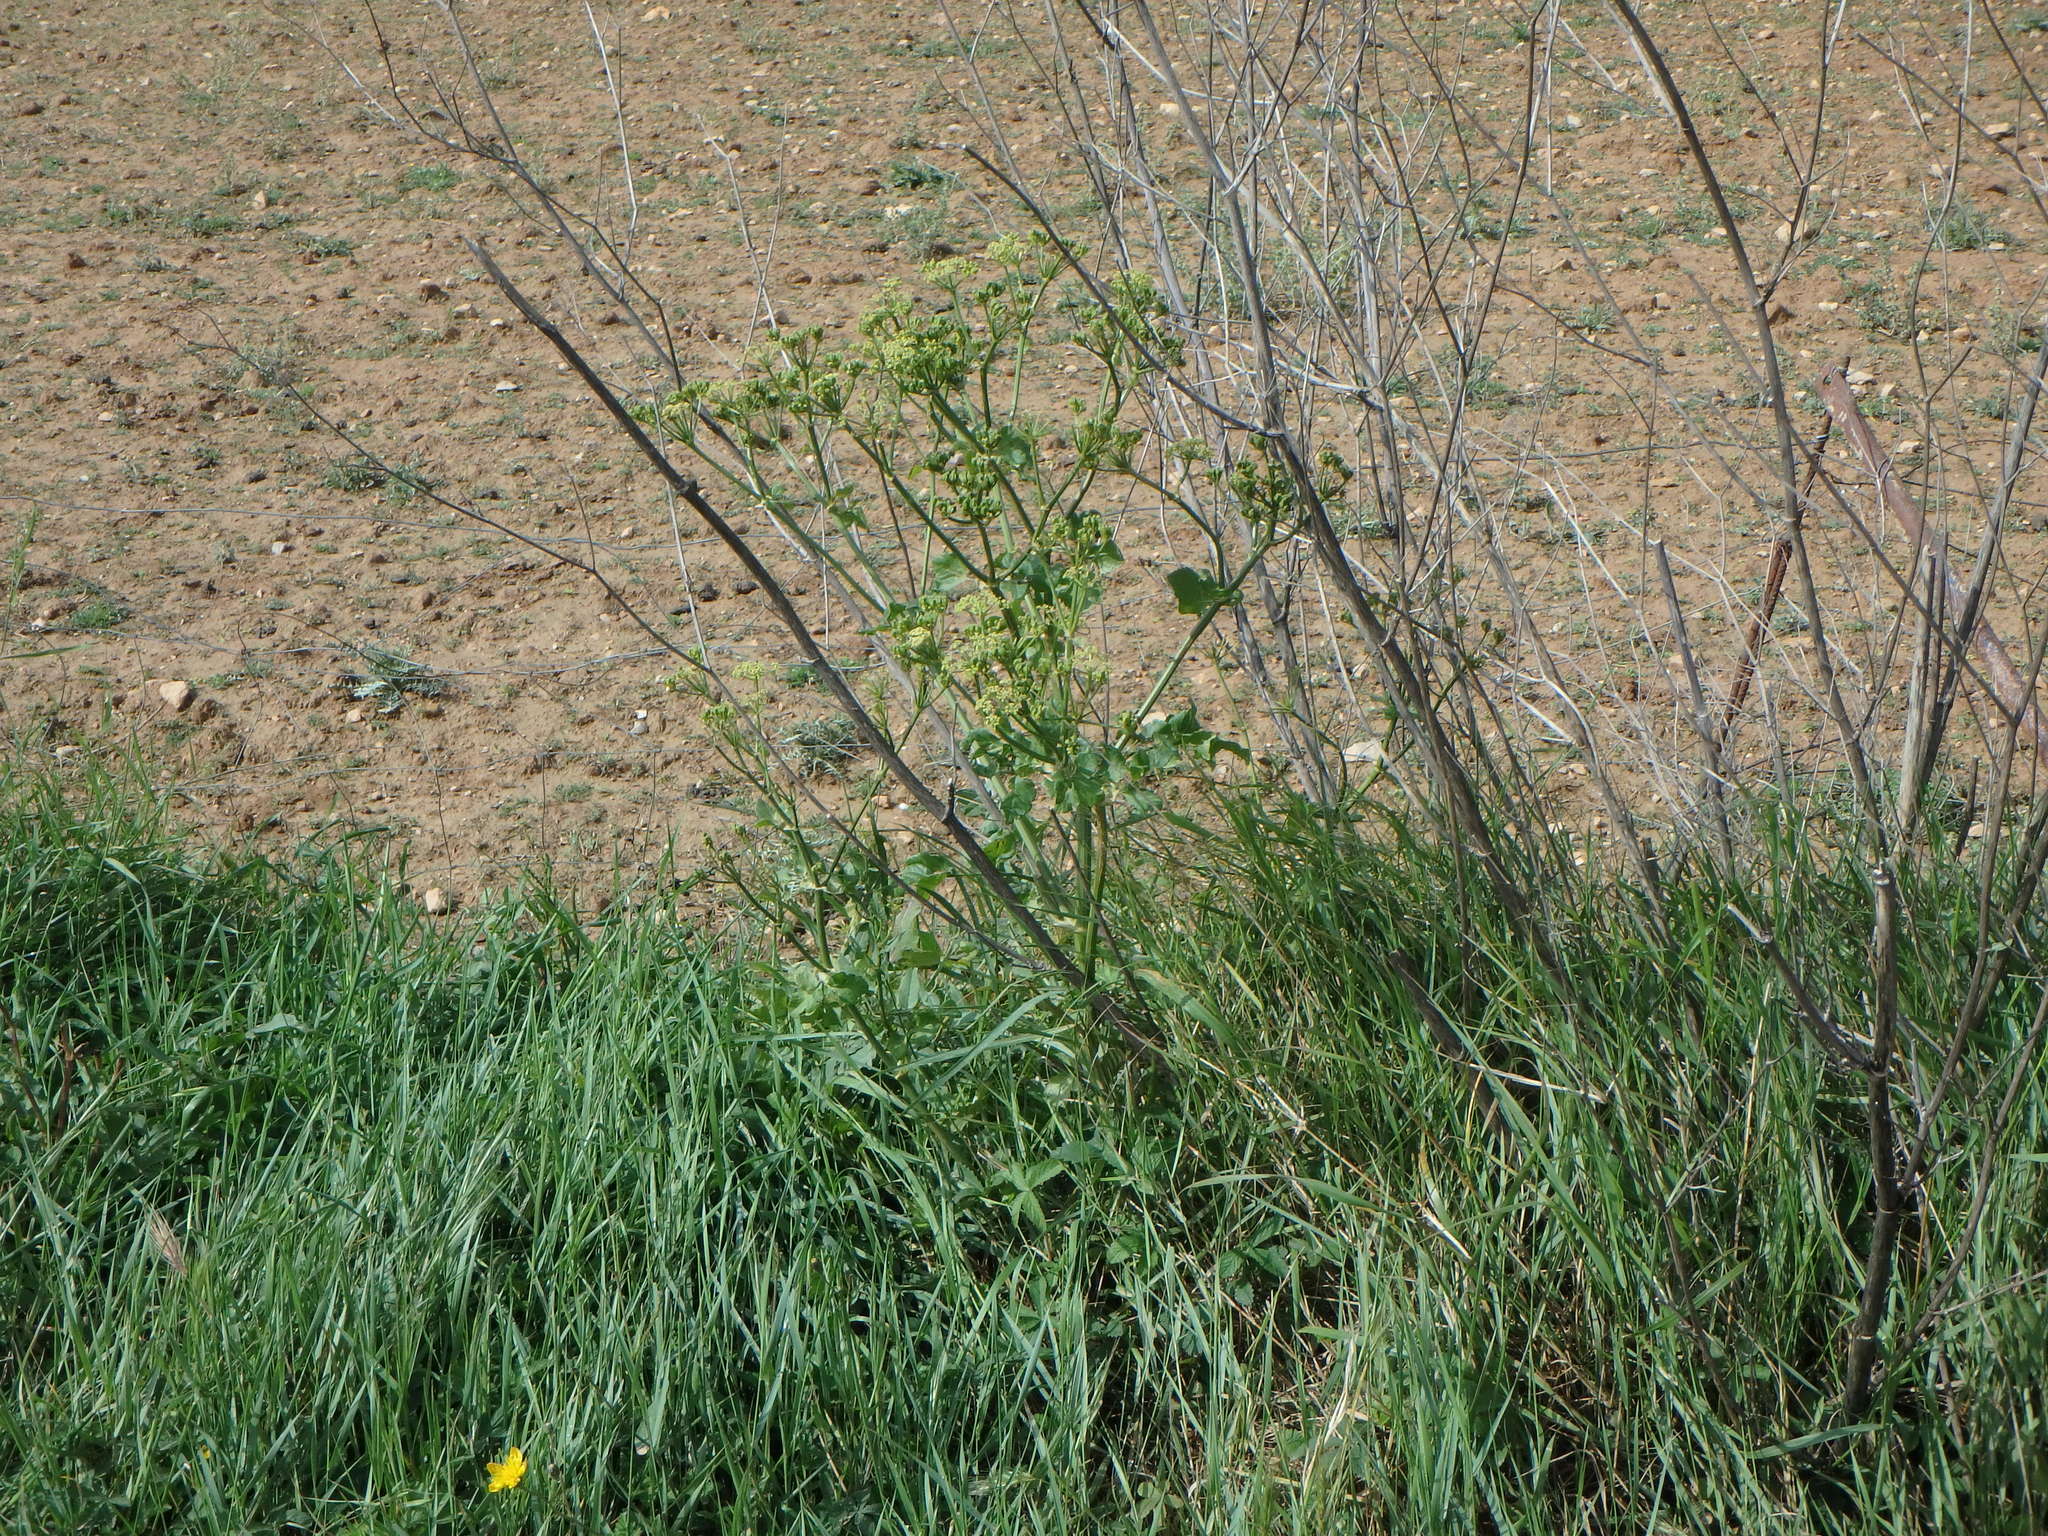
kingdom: Plantae
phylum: Tracheophyta
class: Magnoliopsida
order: Apiales
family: Apiaceae
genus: Smyrnium
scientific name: Smyrnium olusatrum
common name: Alexanders
